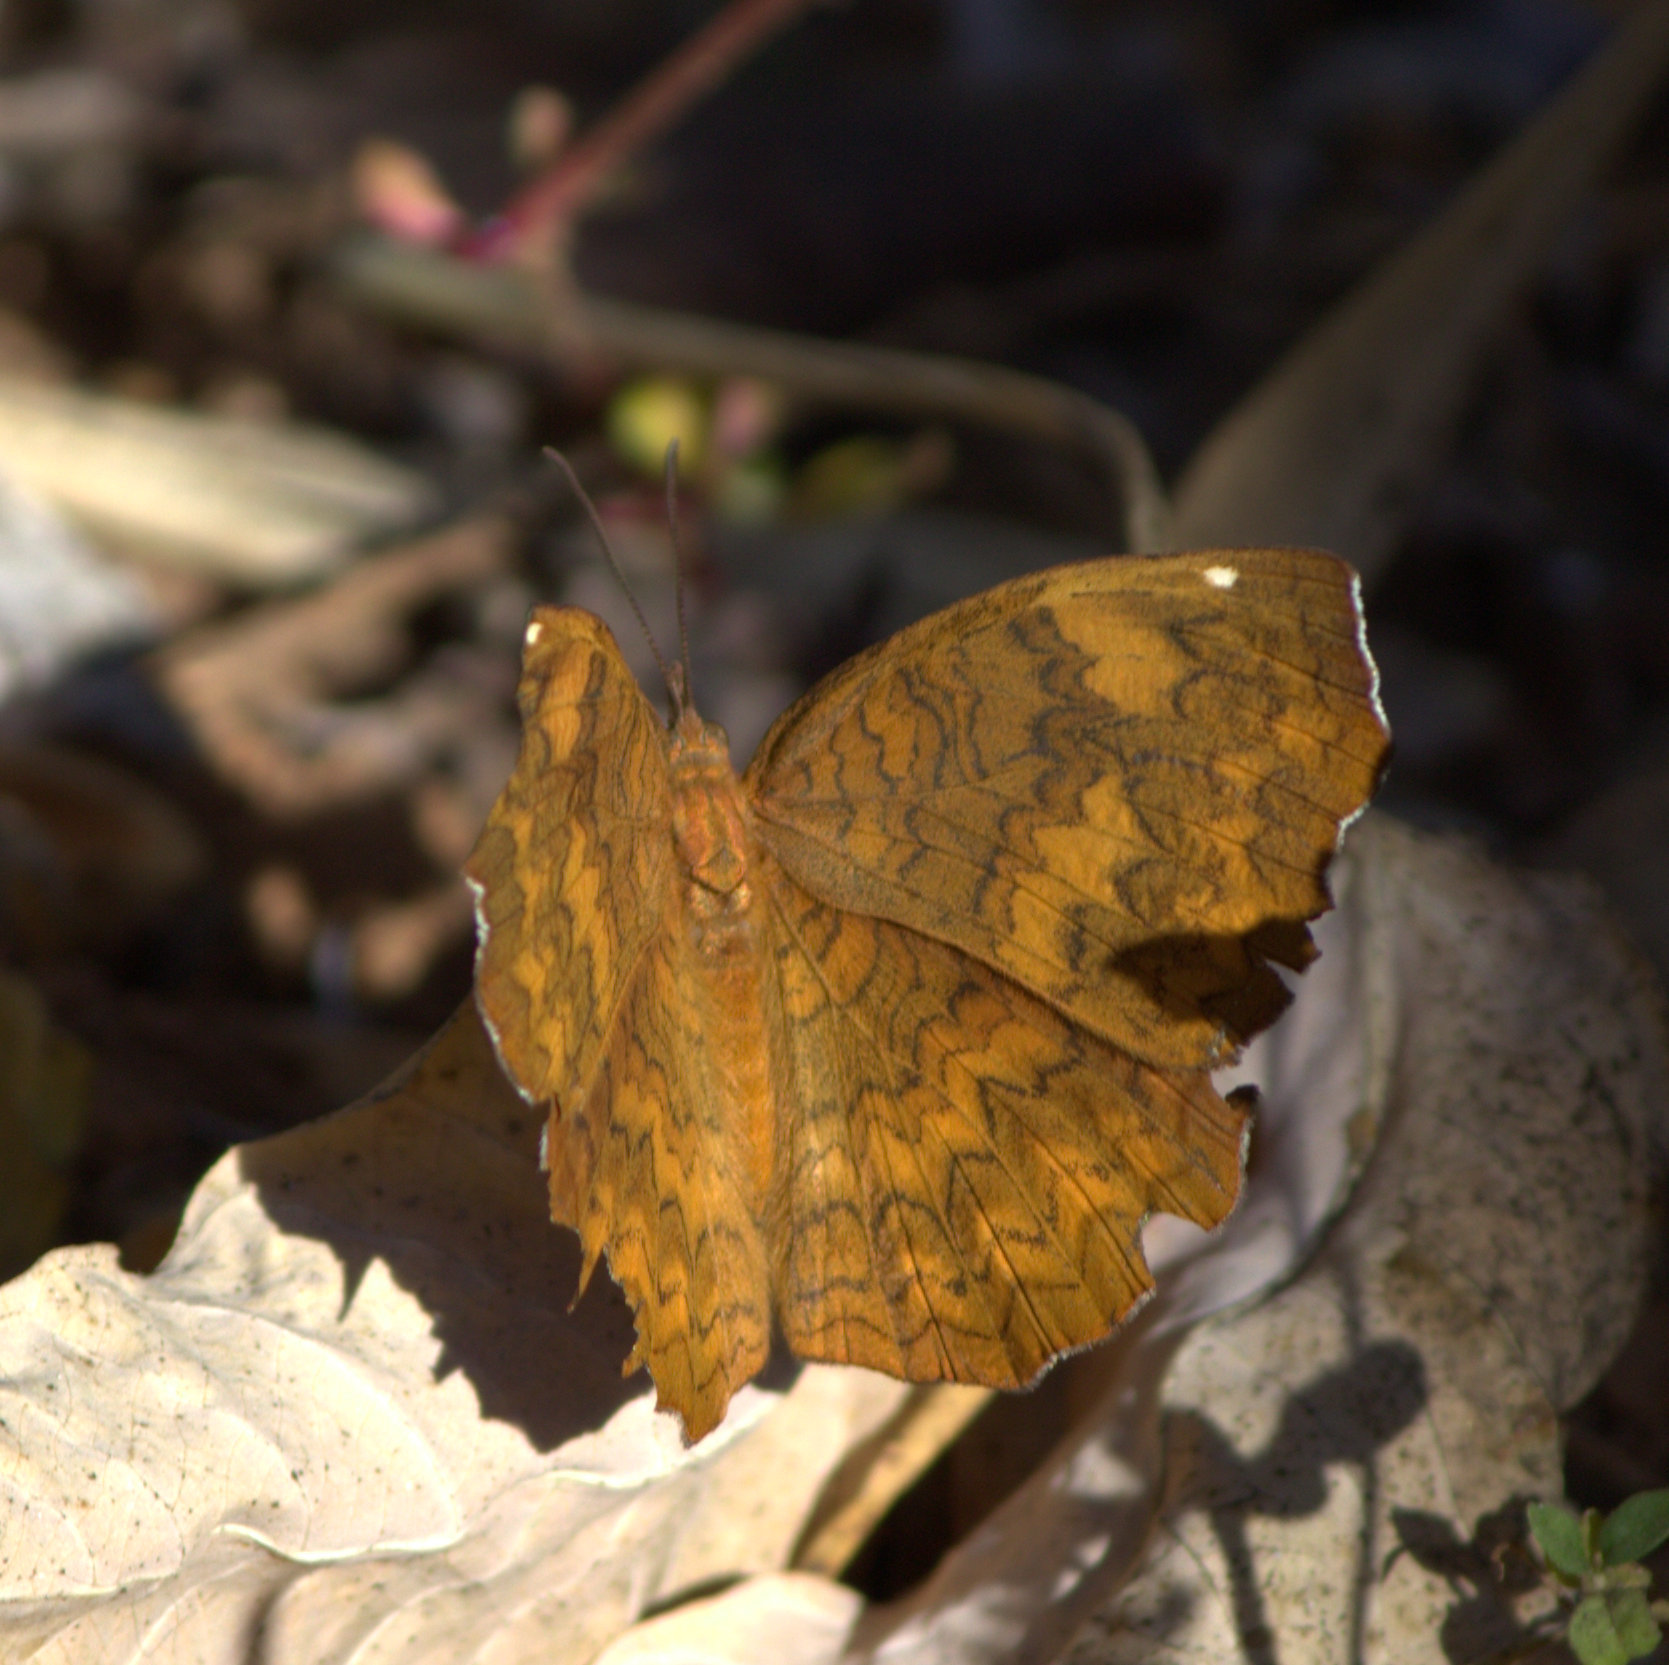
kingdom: Animalia
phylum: Arthropoda
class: Insecta
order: Lepidoptera
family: Nymphalidae
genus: Ariadne
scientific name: Ariadne merione
